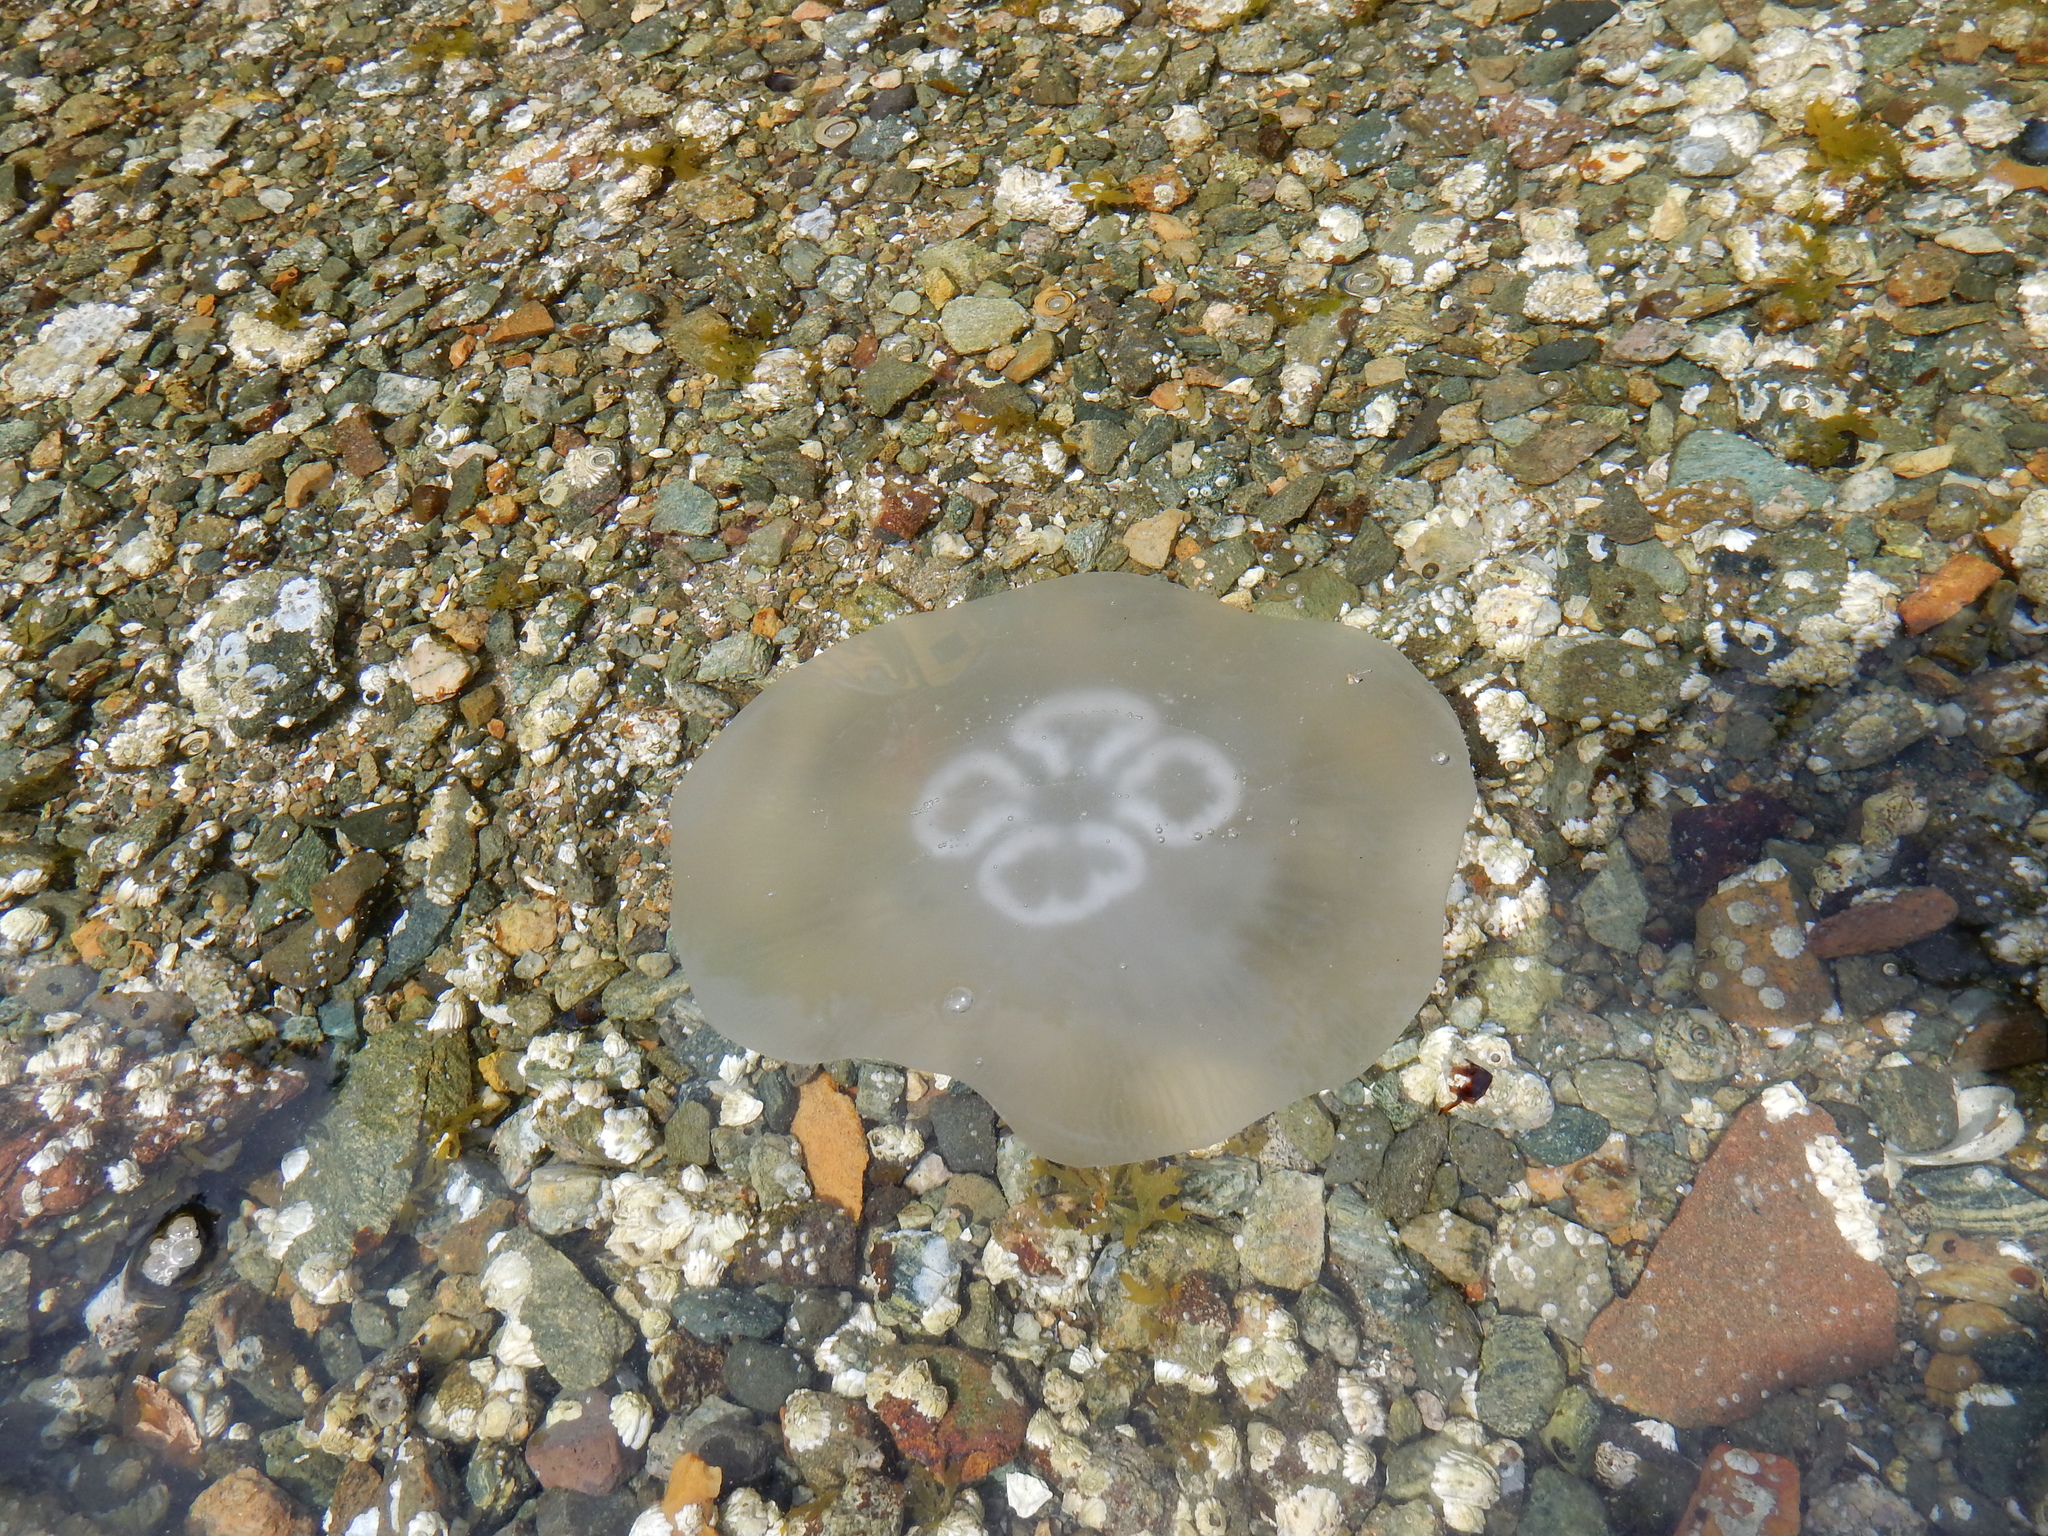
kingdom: Animalia
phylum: Cnidaria
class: Scyphozoa
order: Semaeostomeae
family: Ulmaridae
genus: Aurelia
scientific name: Aurelia labiata
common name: Pacific moon jelly
